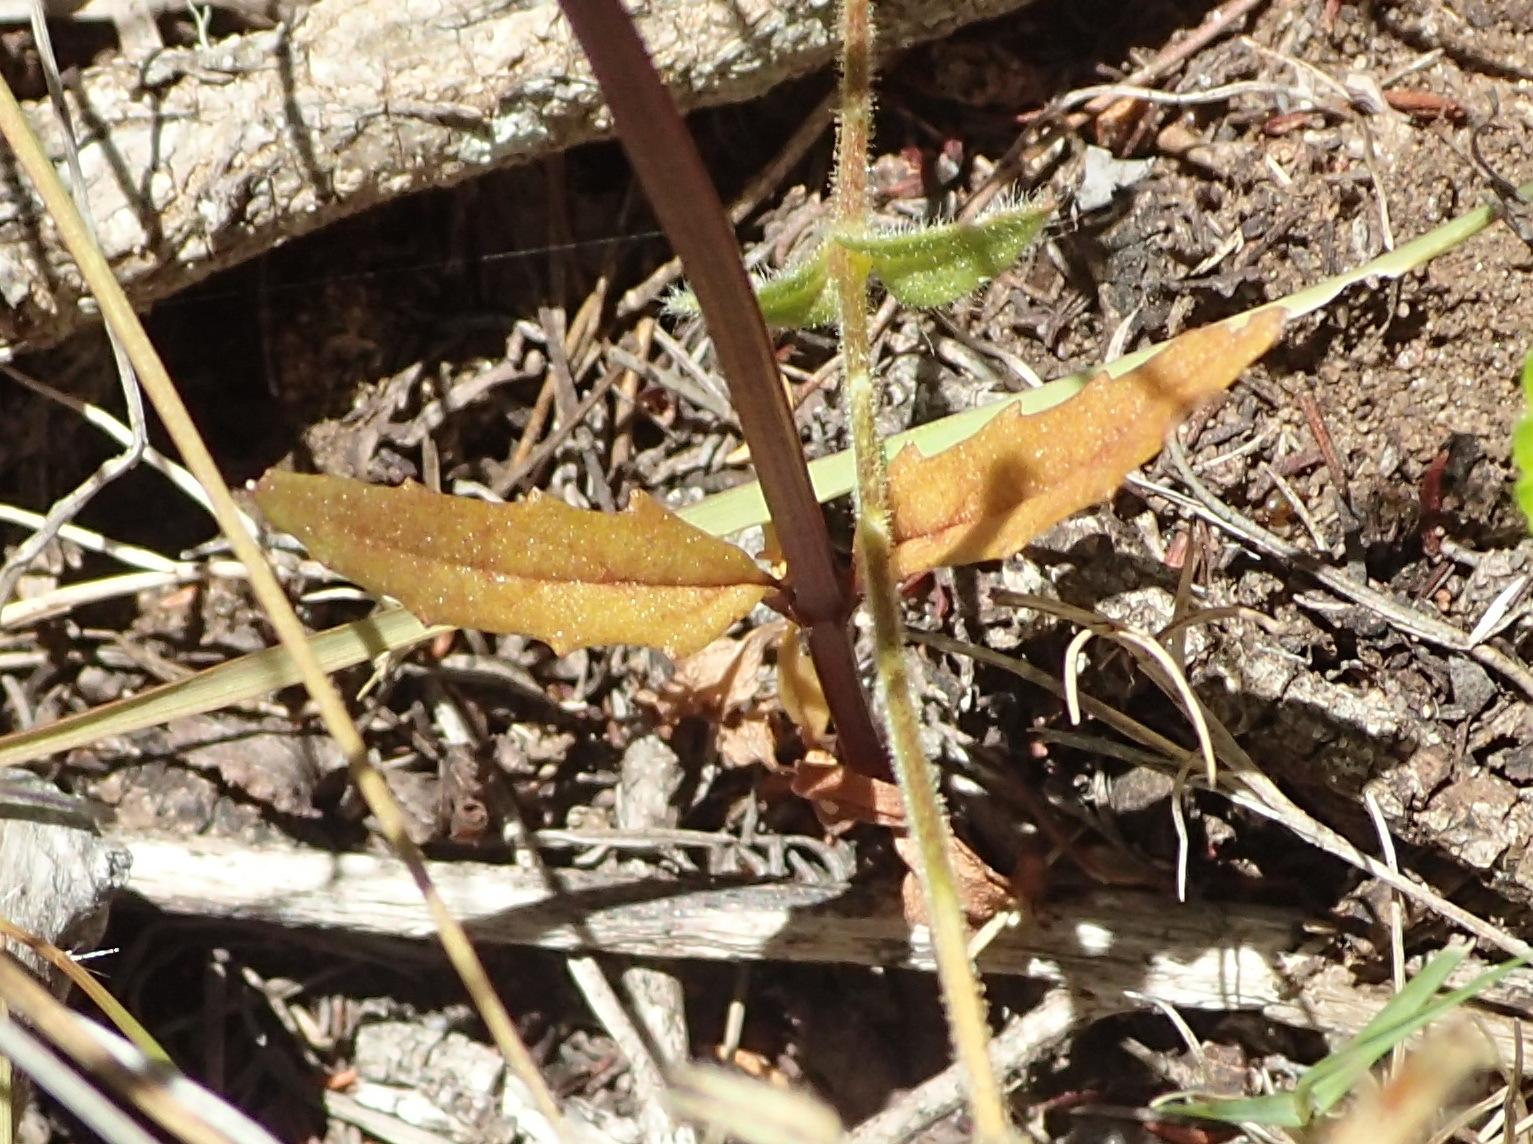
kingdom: Plantae
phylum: Tracheophyta
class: Magnoliopsida
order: Lamiales
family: Scrophulariaceae
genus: Nemesia
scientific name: Nemesia leipoldtii
